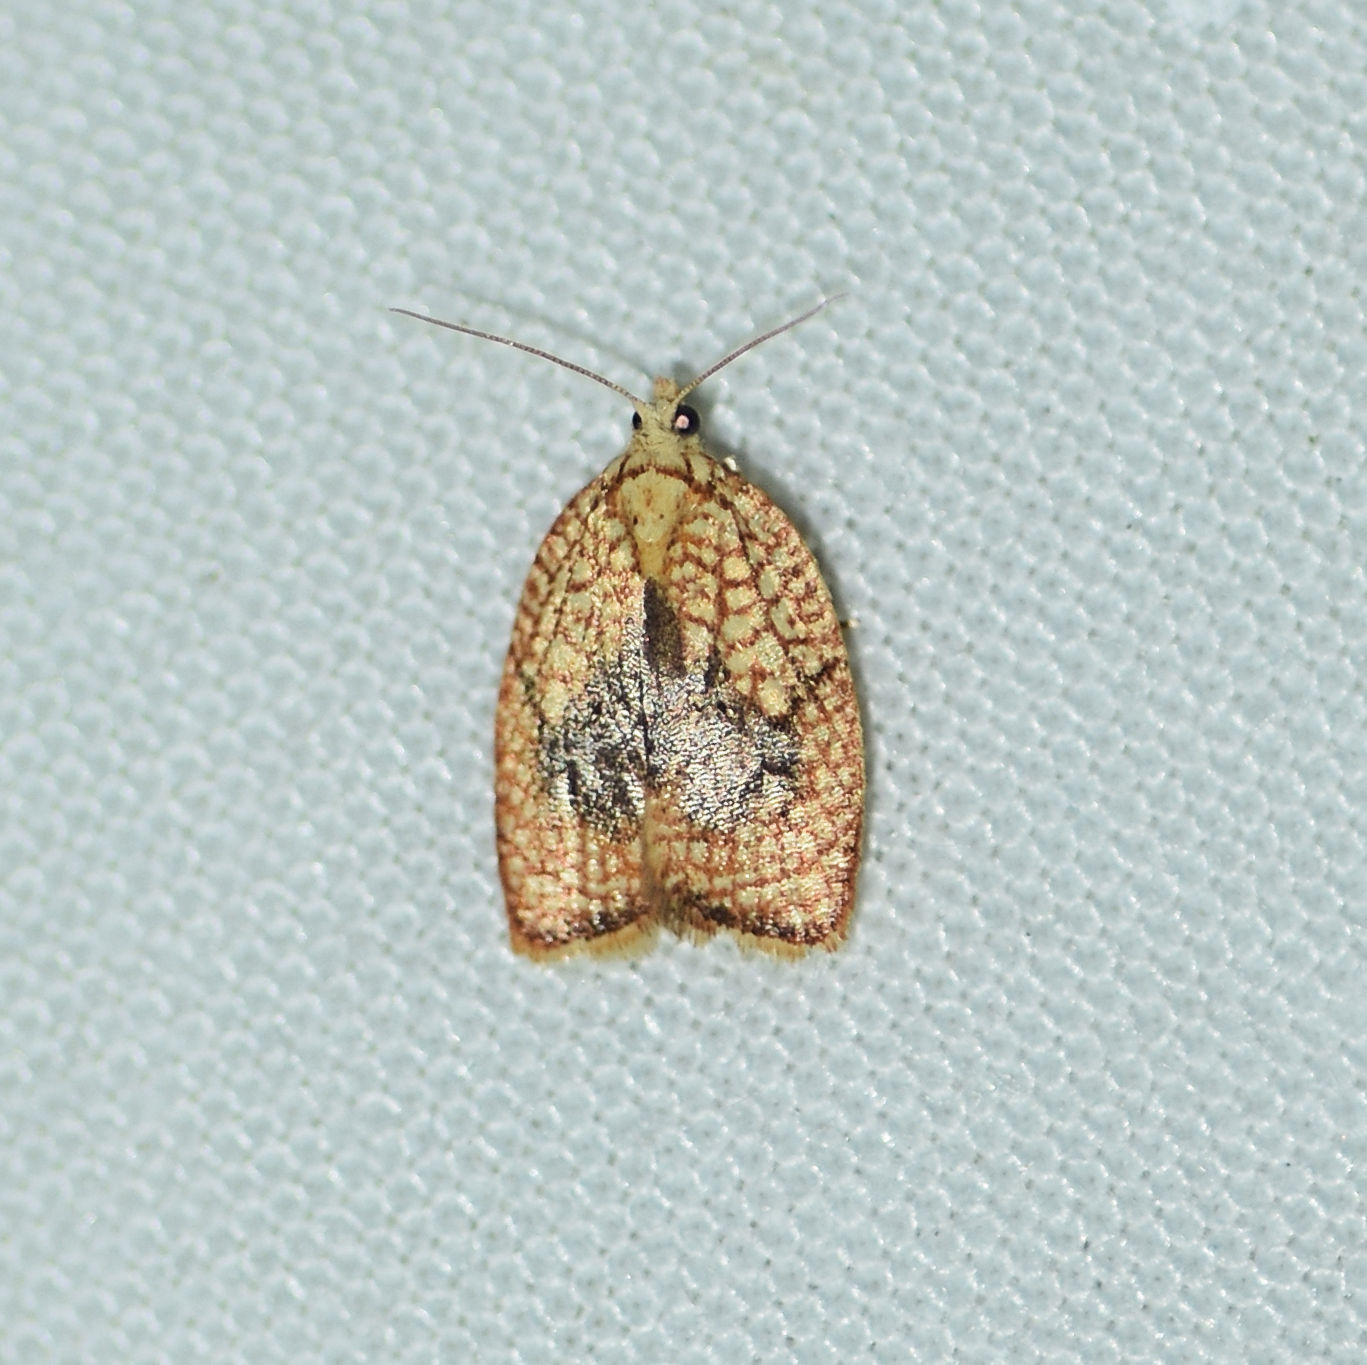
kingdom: Animalia
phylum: Arthropoda
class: Insecta
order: Lepidoptera
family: Tortricidae
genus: Acleris
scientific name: Acleris forsskaleana
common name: Maple button
